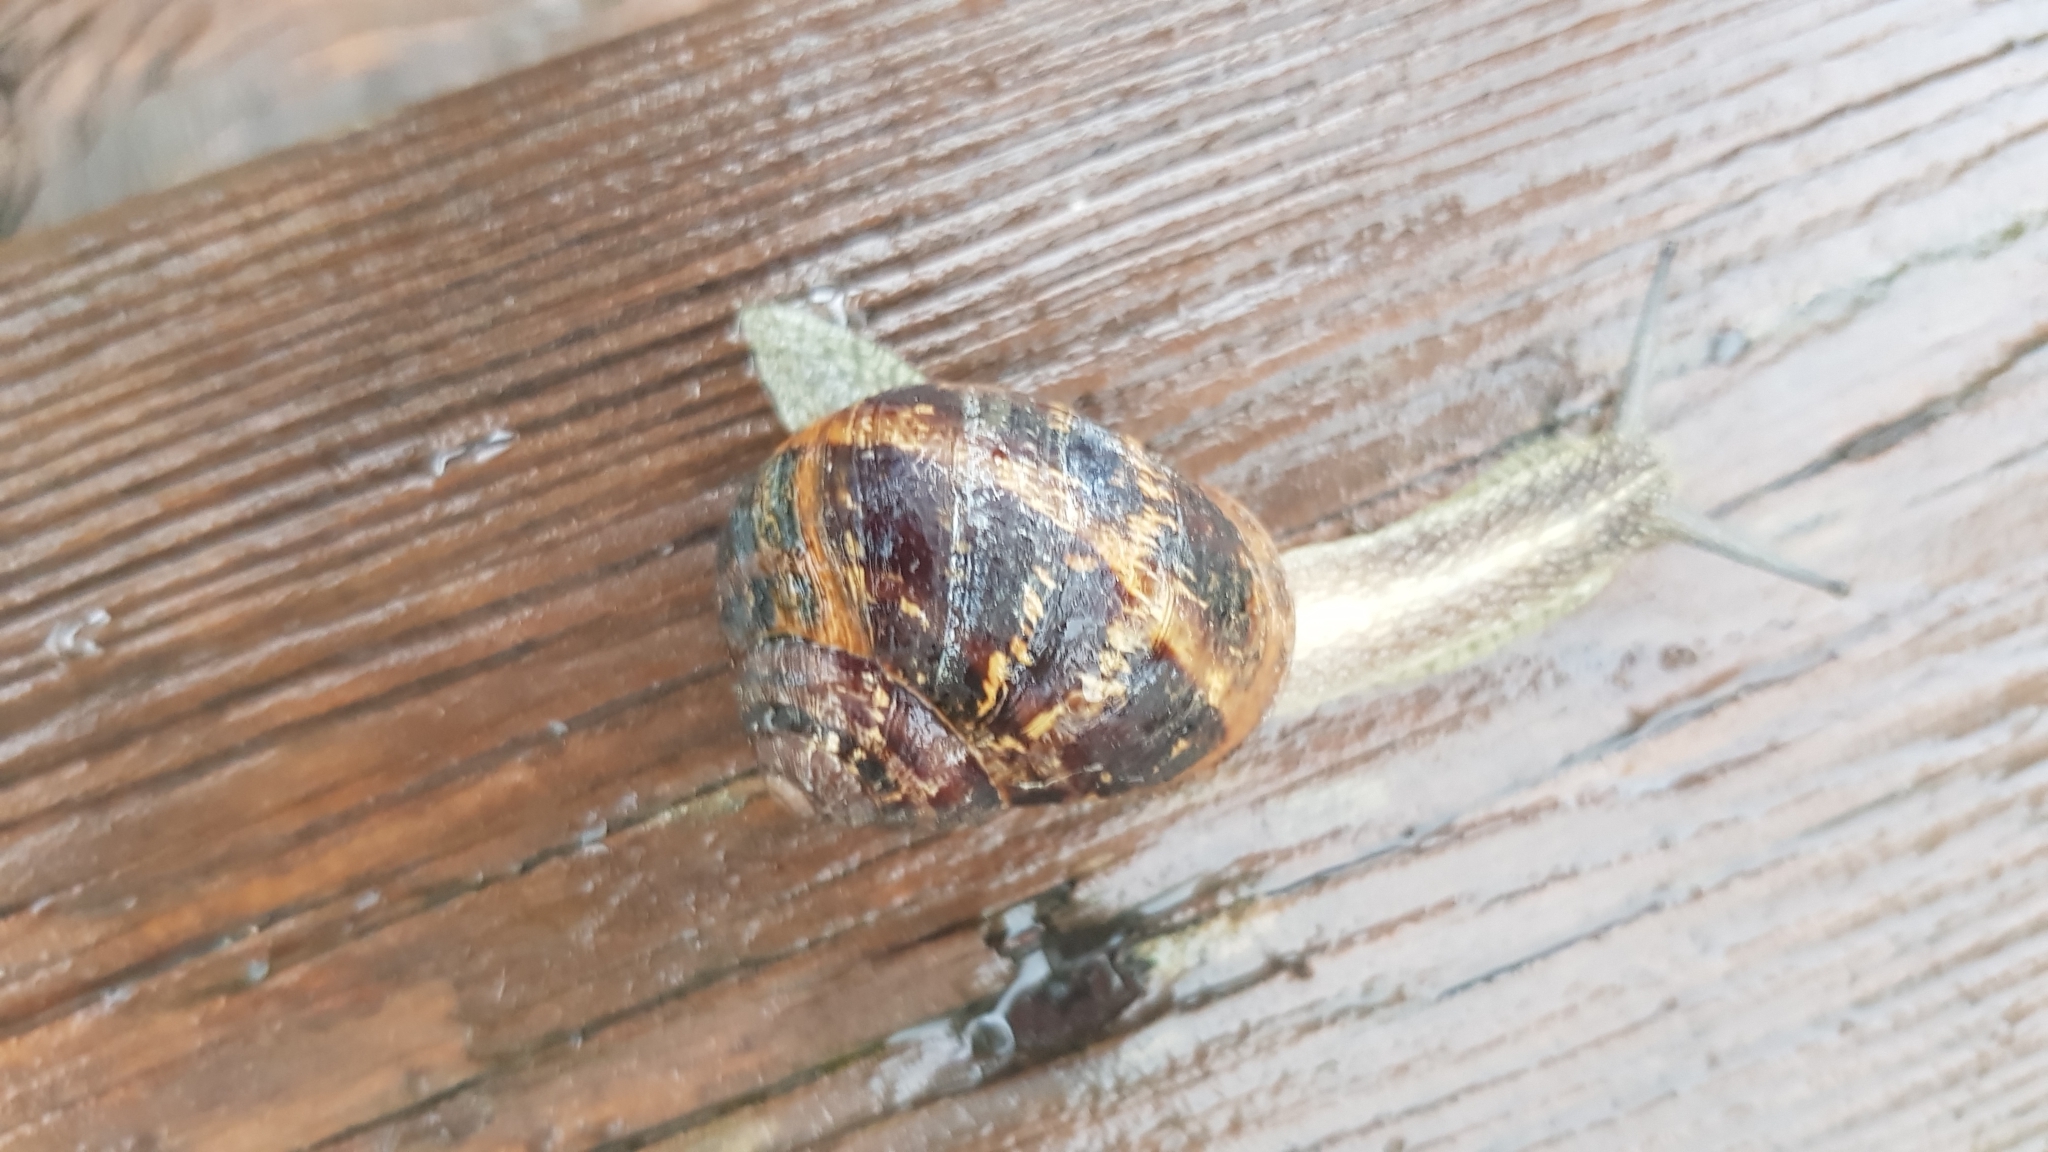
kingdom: Animalia
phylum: Mollusca
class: Gastropoda
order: Stylommatophora
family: Helicidae
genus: Cornu
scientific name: Cornu aspersum
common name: Brown garden snail
